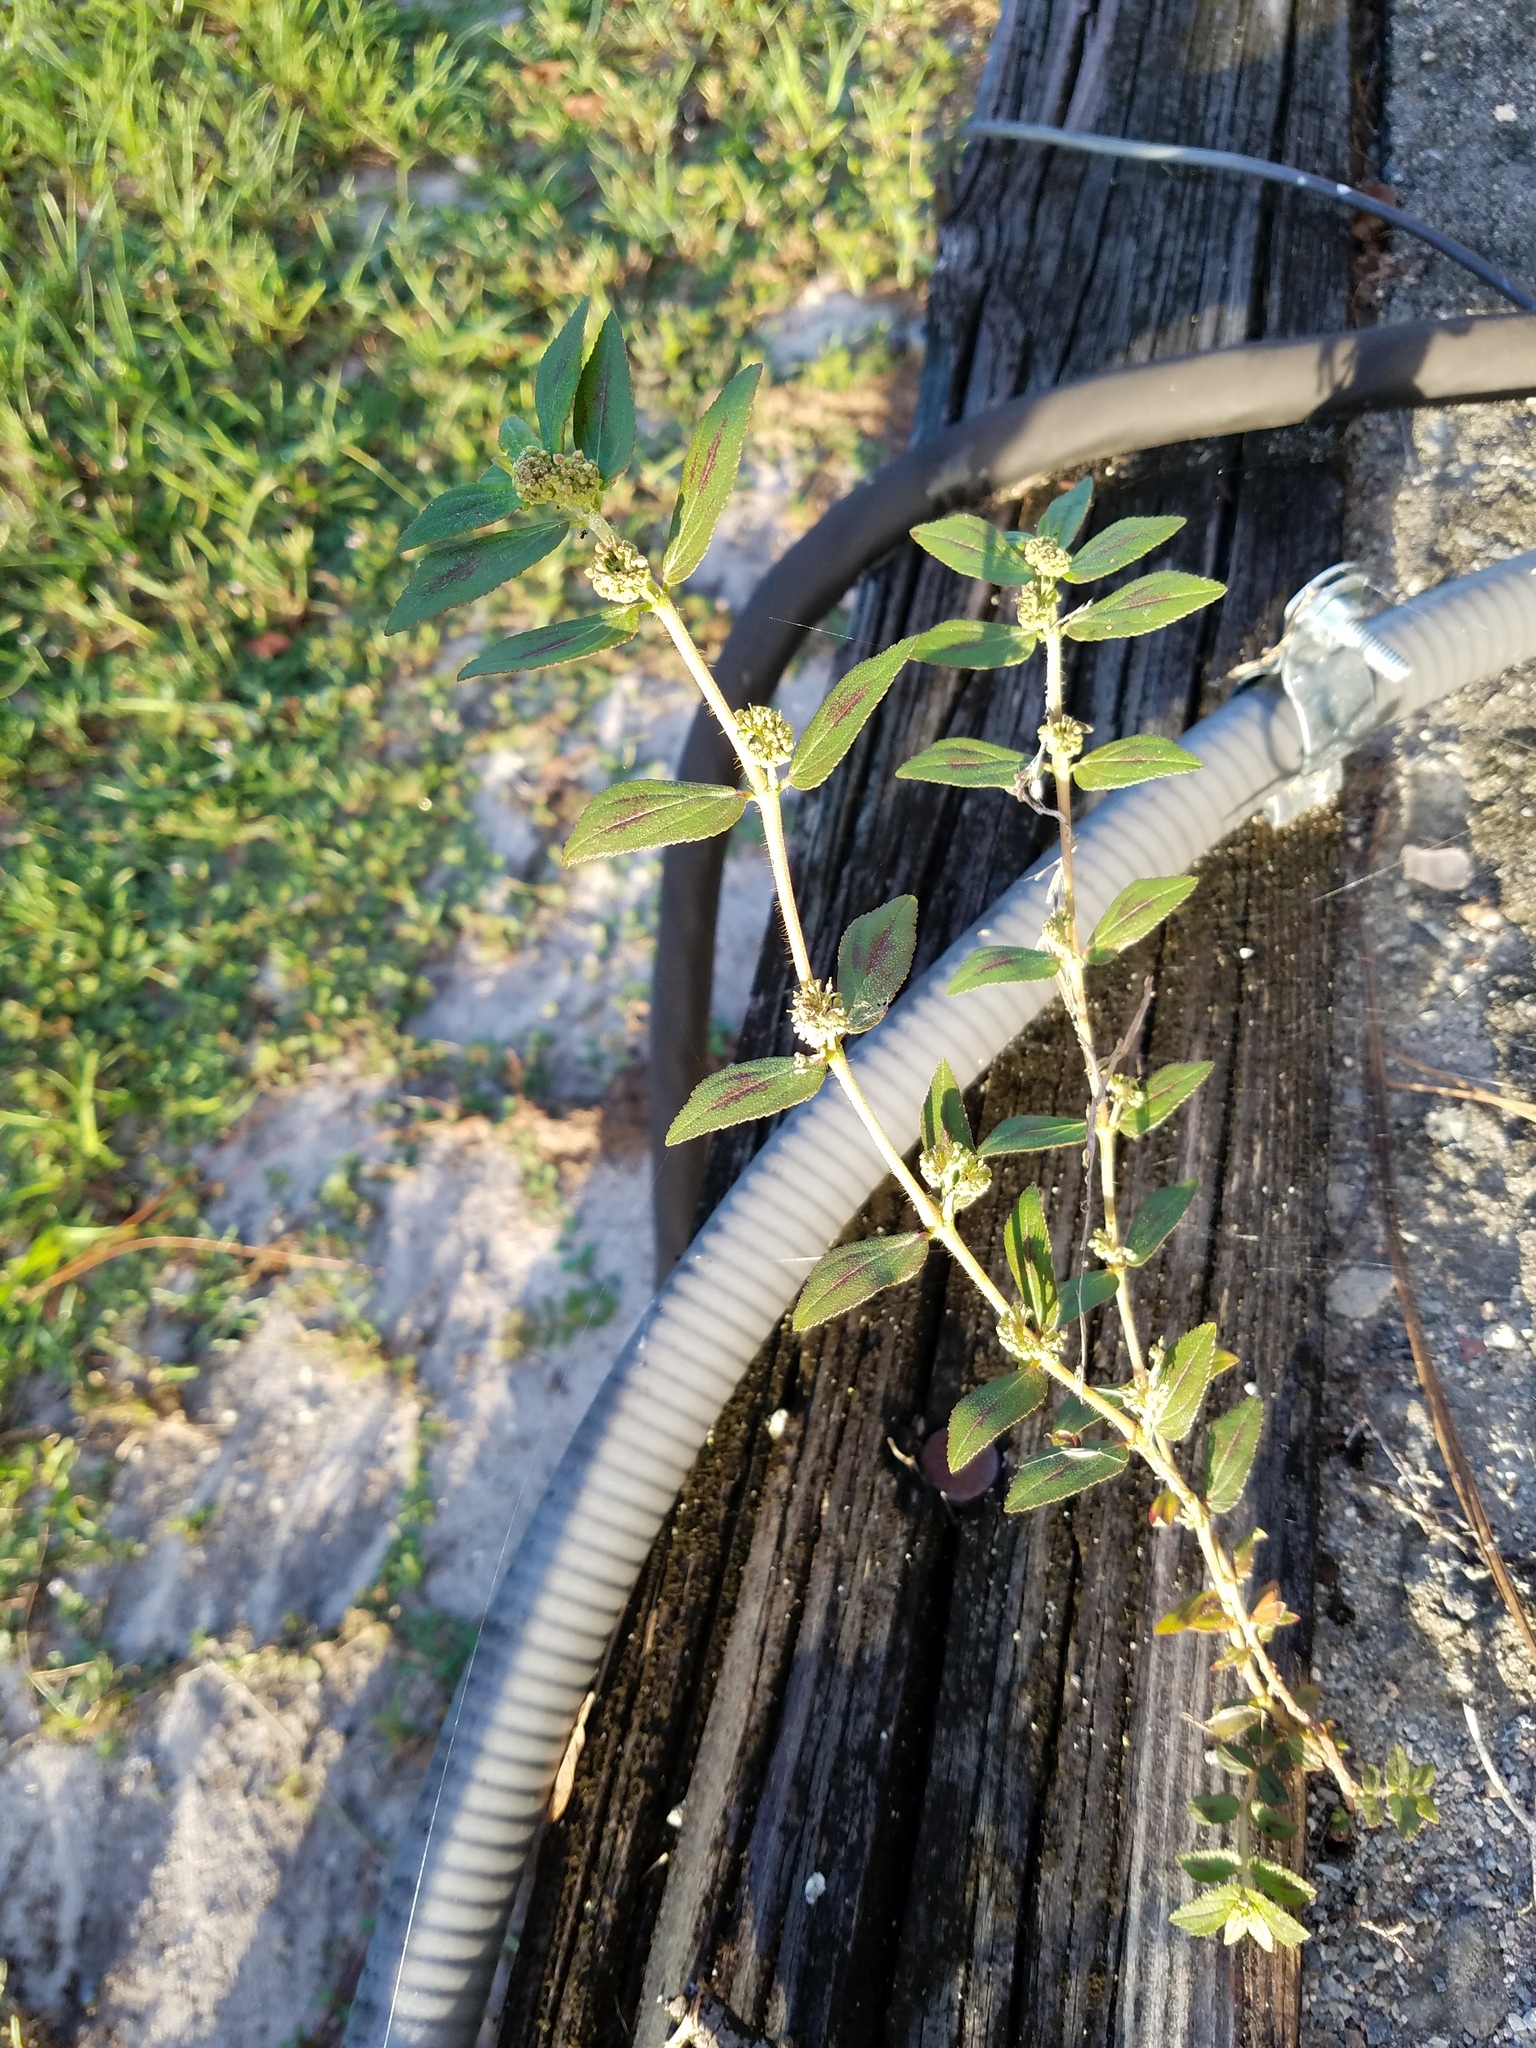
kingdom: Plantae
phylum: Tracheophyta
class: Magnoliopsida
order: Malpighiales
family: Euphorbiaceae
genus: Euphorbia
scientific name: Euphorbia hirta
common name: Pillpod sandmat
